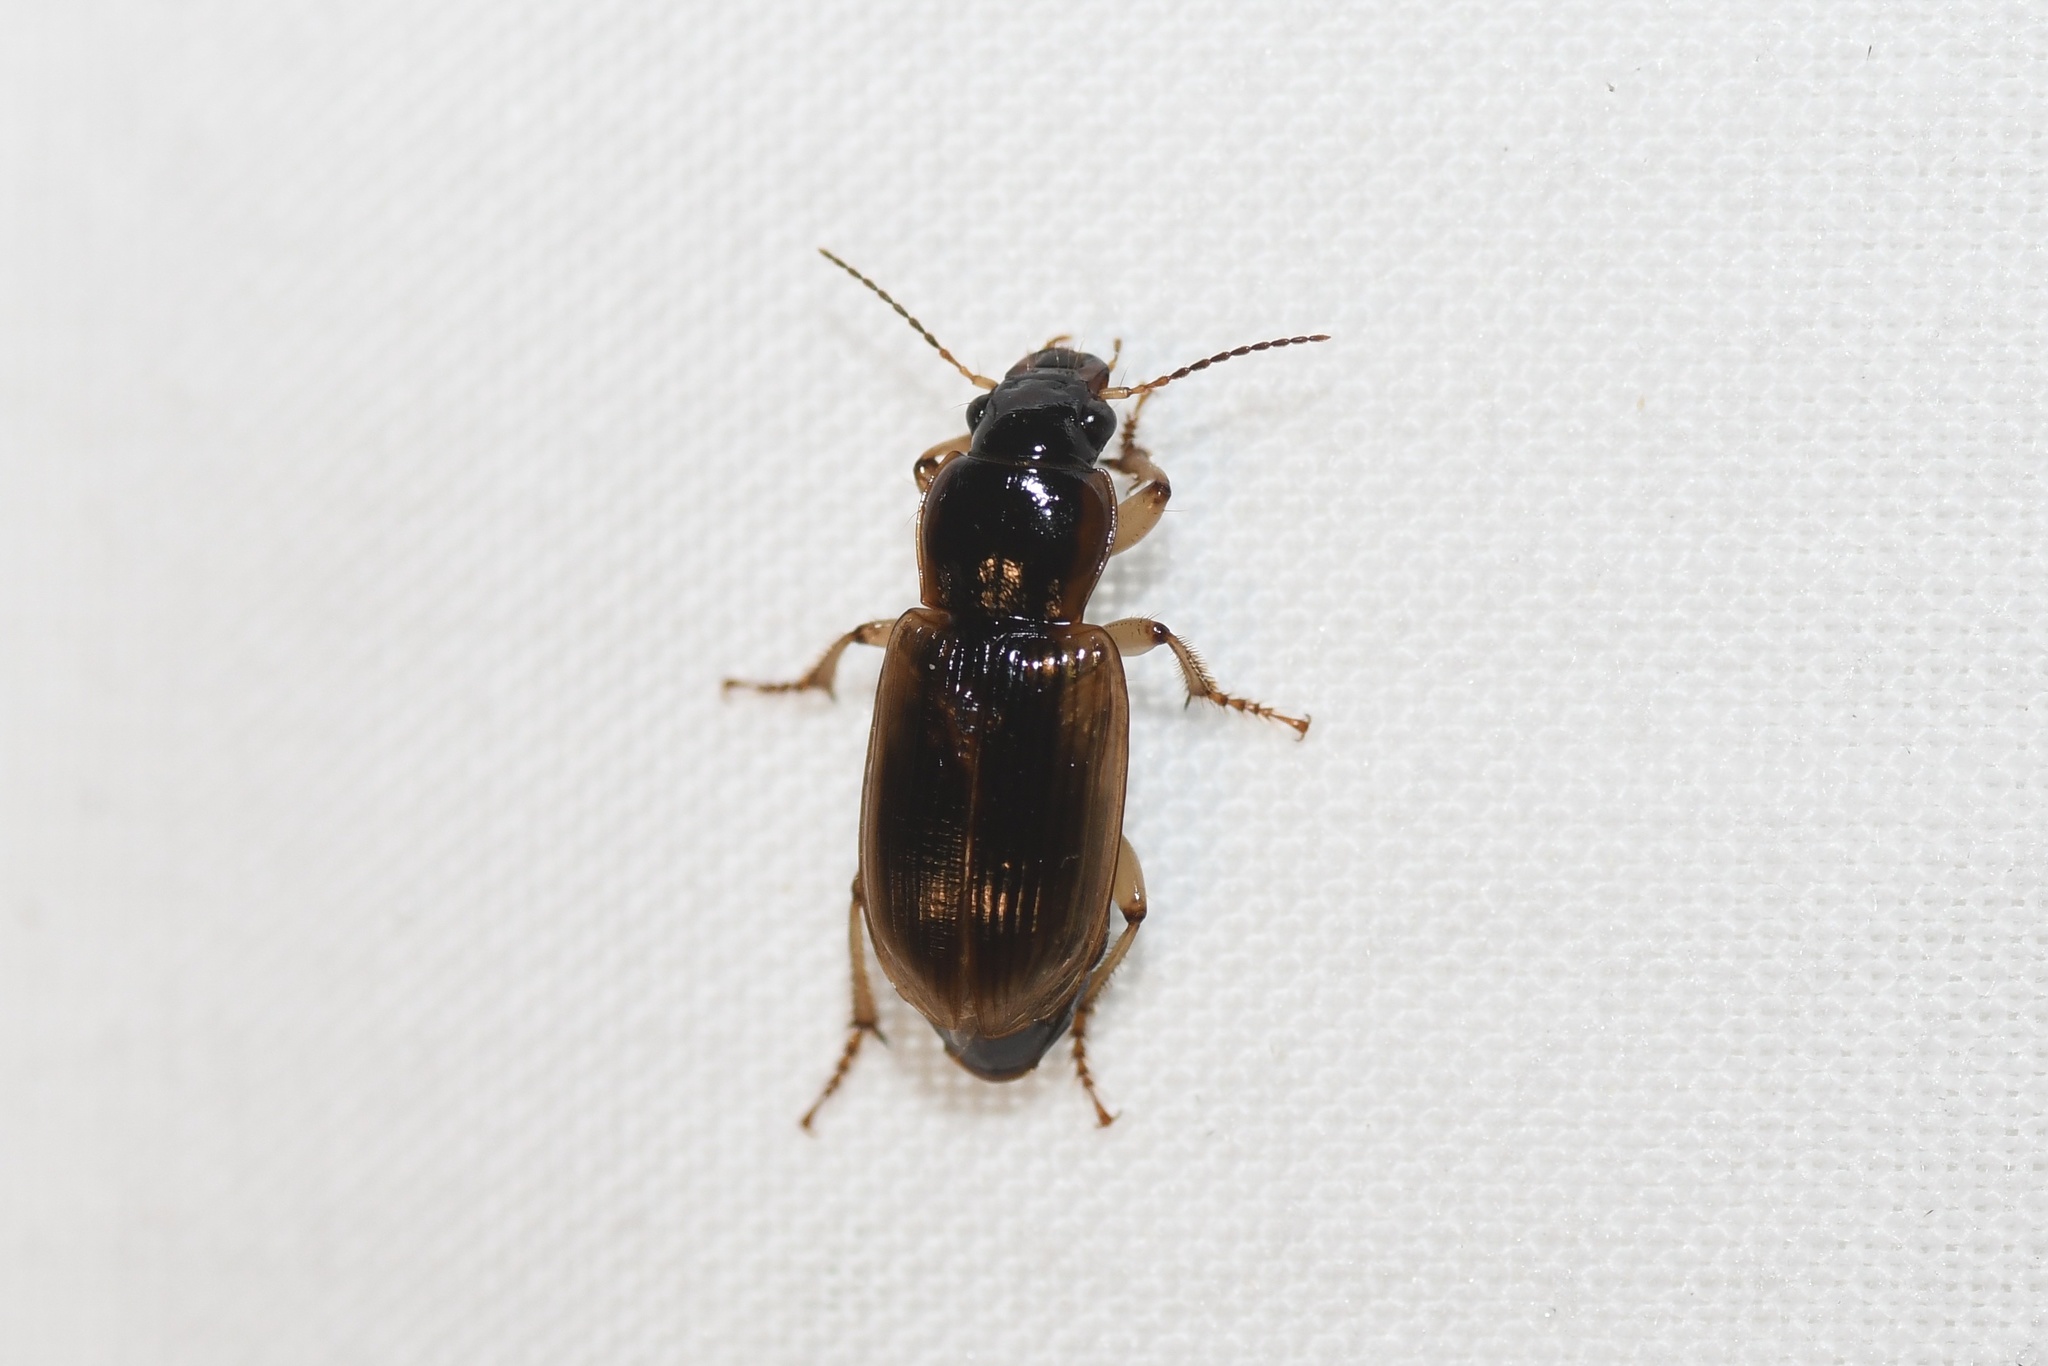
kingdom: Animalia
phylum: Arthropoda
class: Insecta
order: Coleoptera
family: Carabidae
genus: Anisodactylus
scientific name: Anisodactylus discoideus
